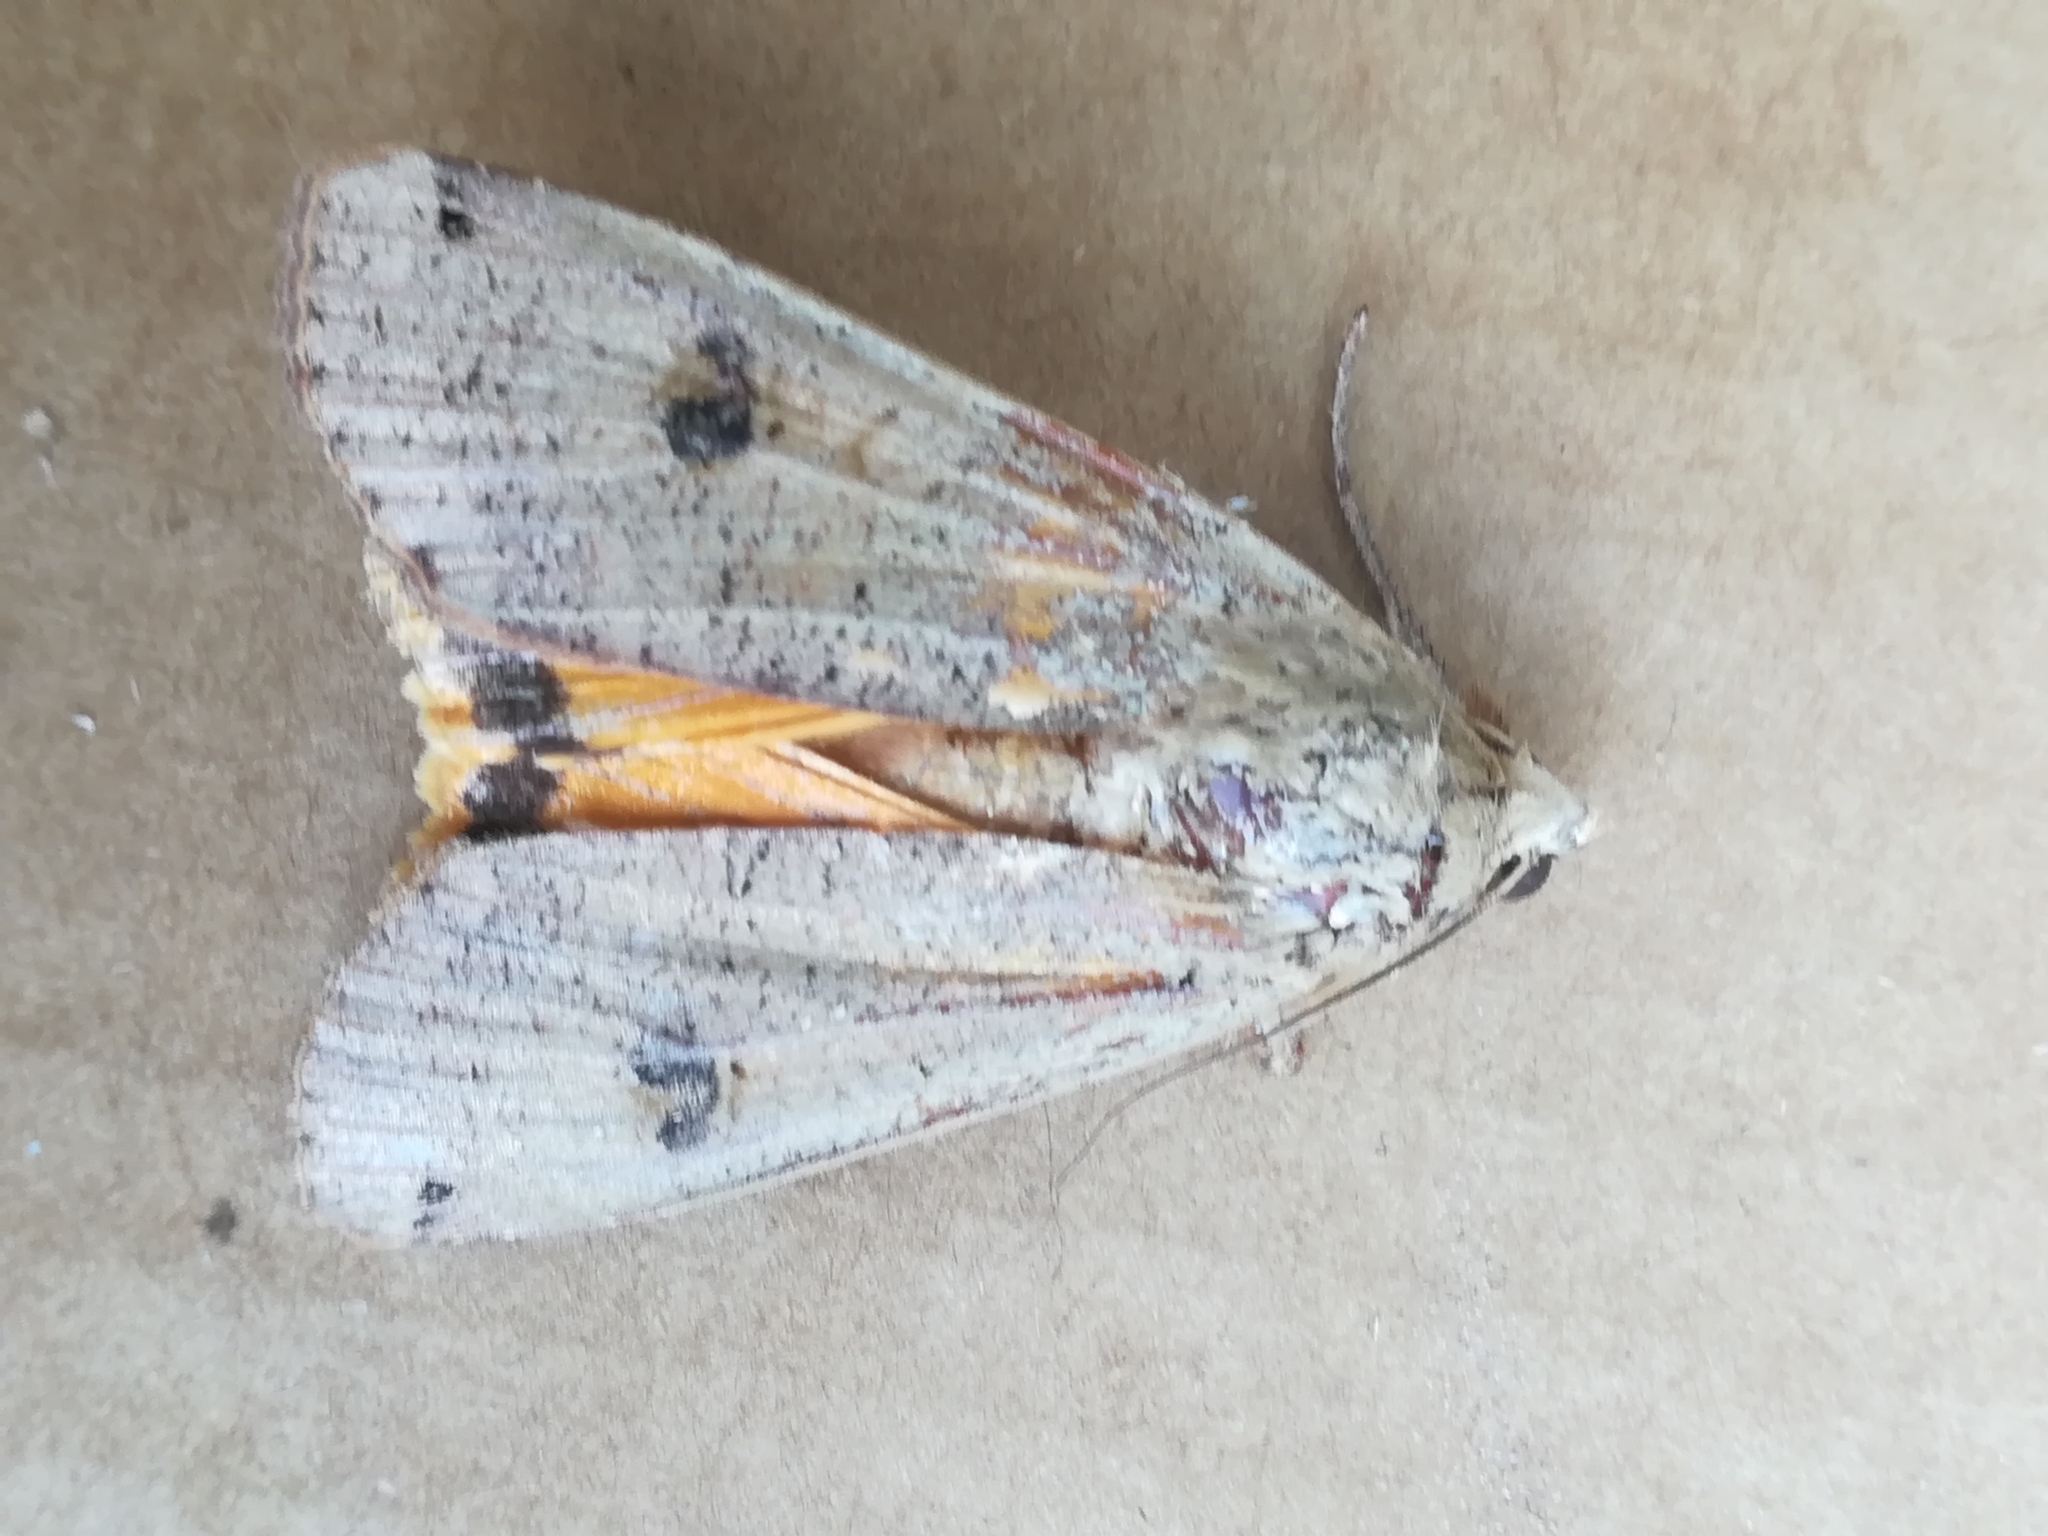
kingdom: Animalia
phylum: Arthropoda
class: Insecta
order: Lepidoptera
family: Noctuidae
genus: Noctua
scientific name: Noctua pronuba
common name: Large yellow underwing
